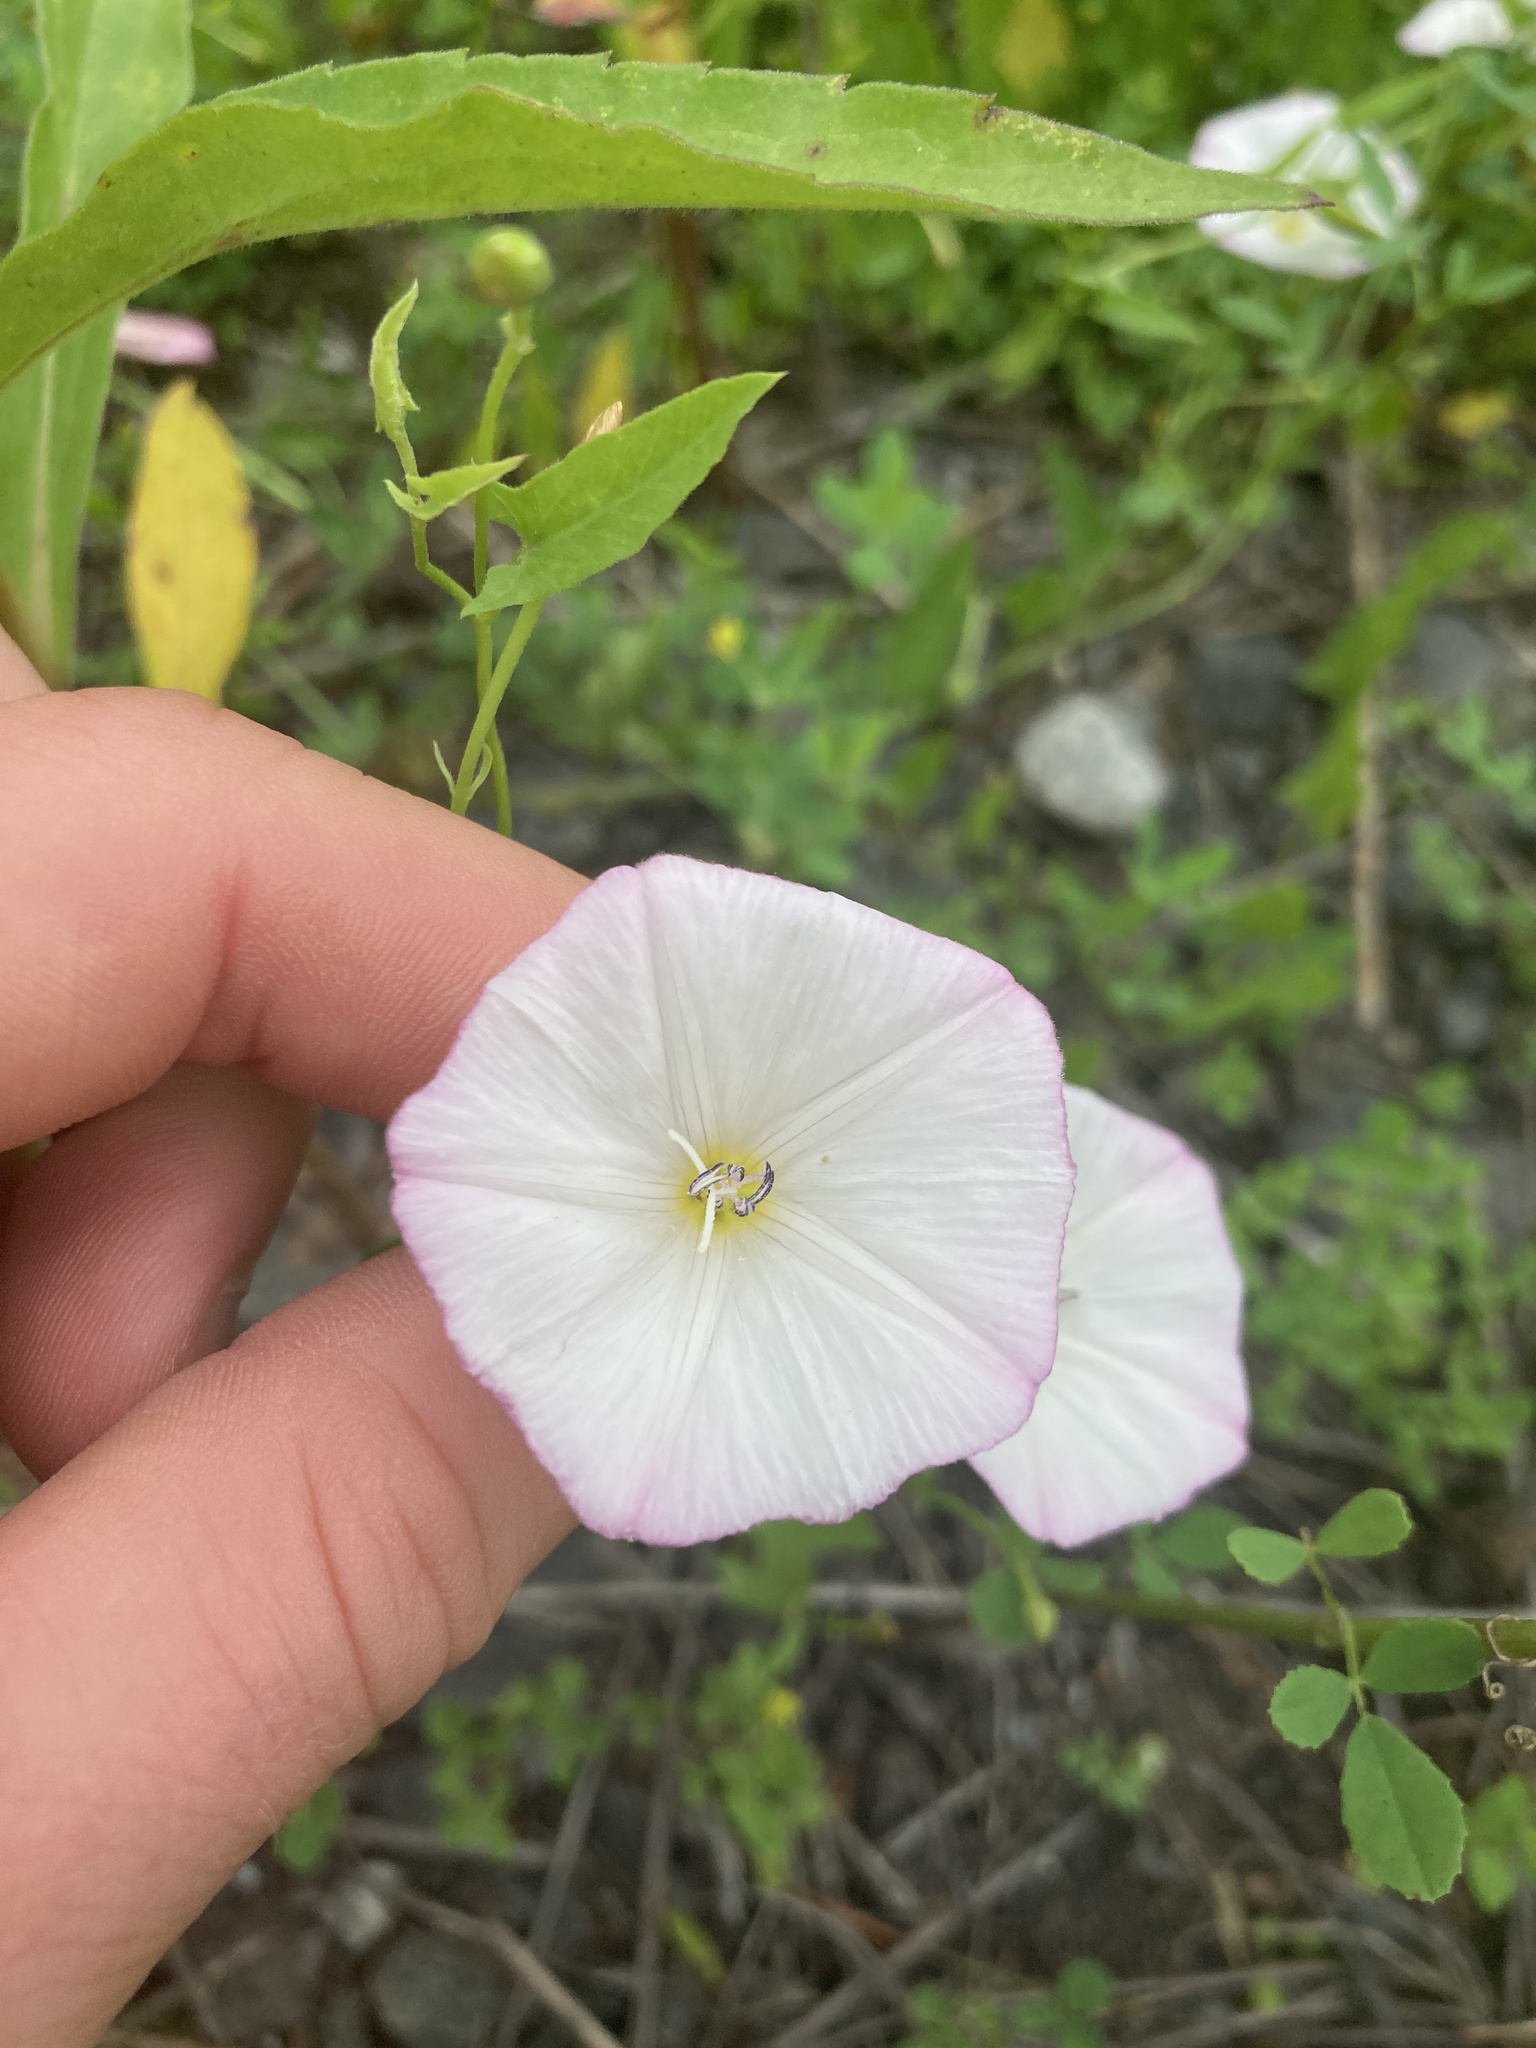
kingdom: Plantae
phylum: Tracheophyta
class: Magnoliopsida
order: Solanales
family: Convolvulaceae
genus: Convolvulus
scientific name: Convolvulus arvensis
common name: Field bindweed
